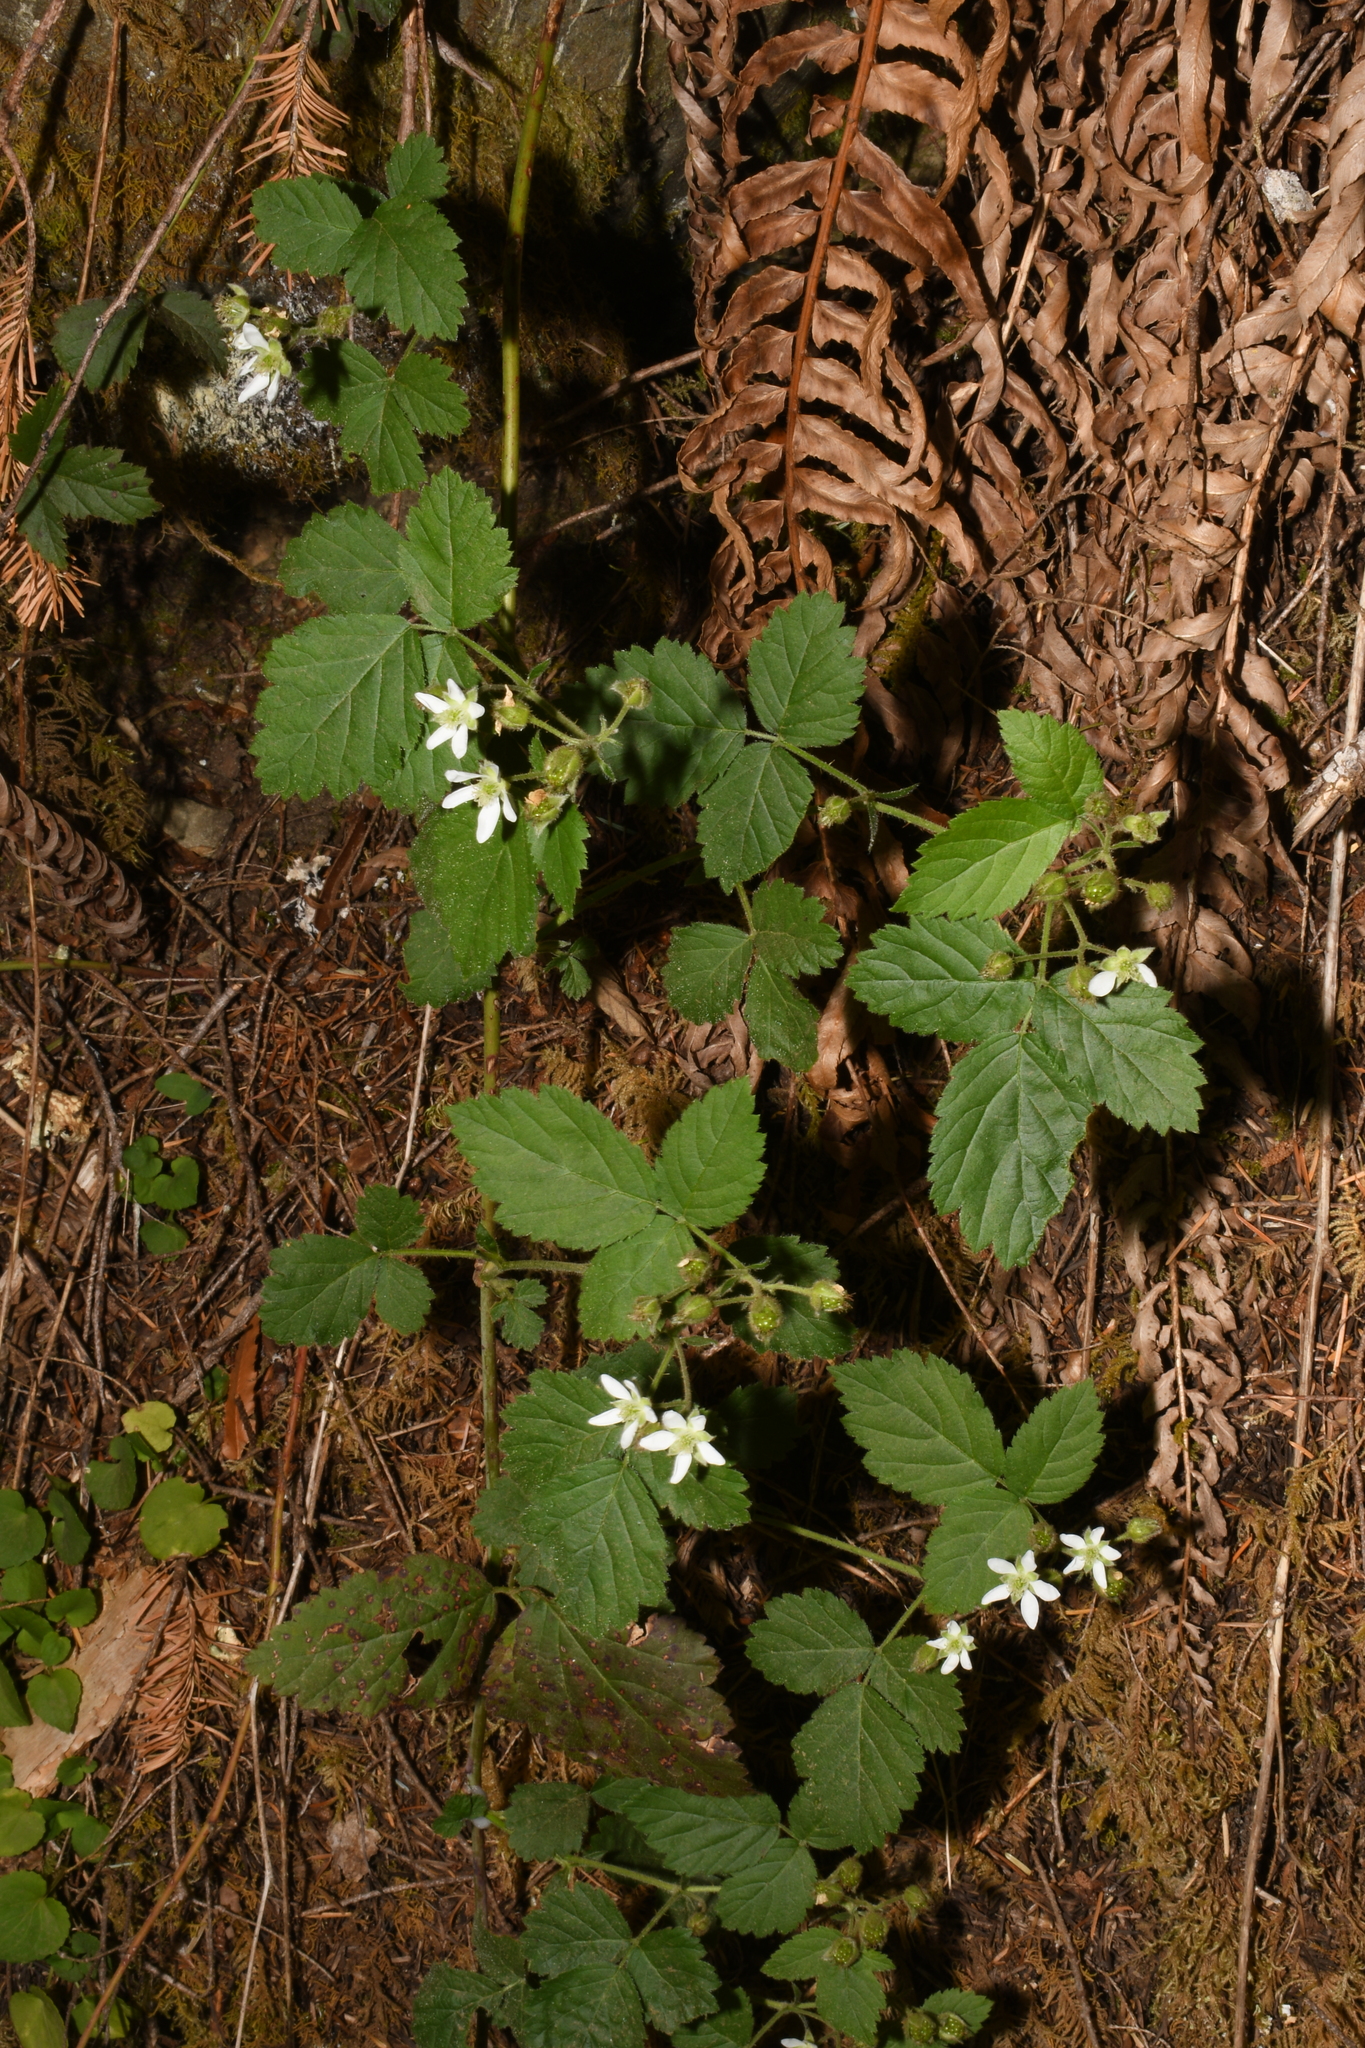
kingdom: Plantae
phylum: Tracheophyta
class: Magnoliopsida
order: Rosales
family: Rosaceae
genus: Rubus
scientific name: Rubus ursinus
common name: Pacific blackberry
